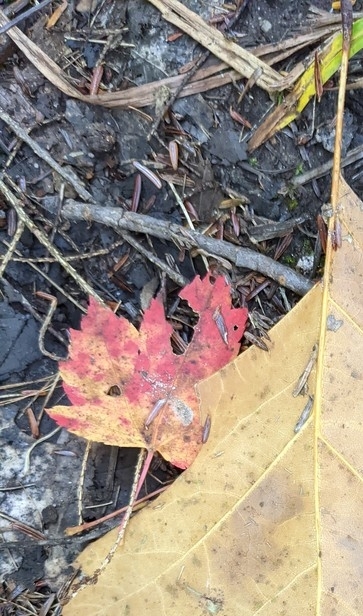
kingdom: Plantae
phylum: Tracheophyta
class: Magnoliopsida
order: Sapindales
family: Sapindaceae
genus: Acer
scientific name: Acer rubrum
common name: Red maple
